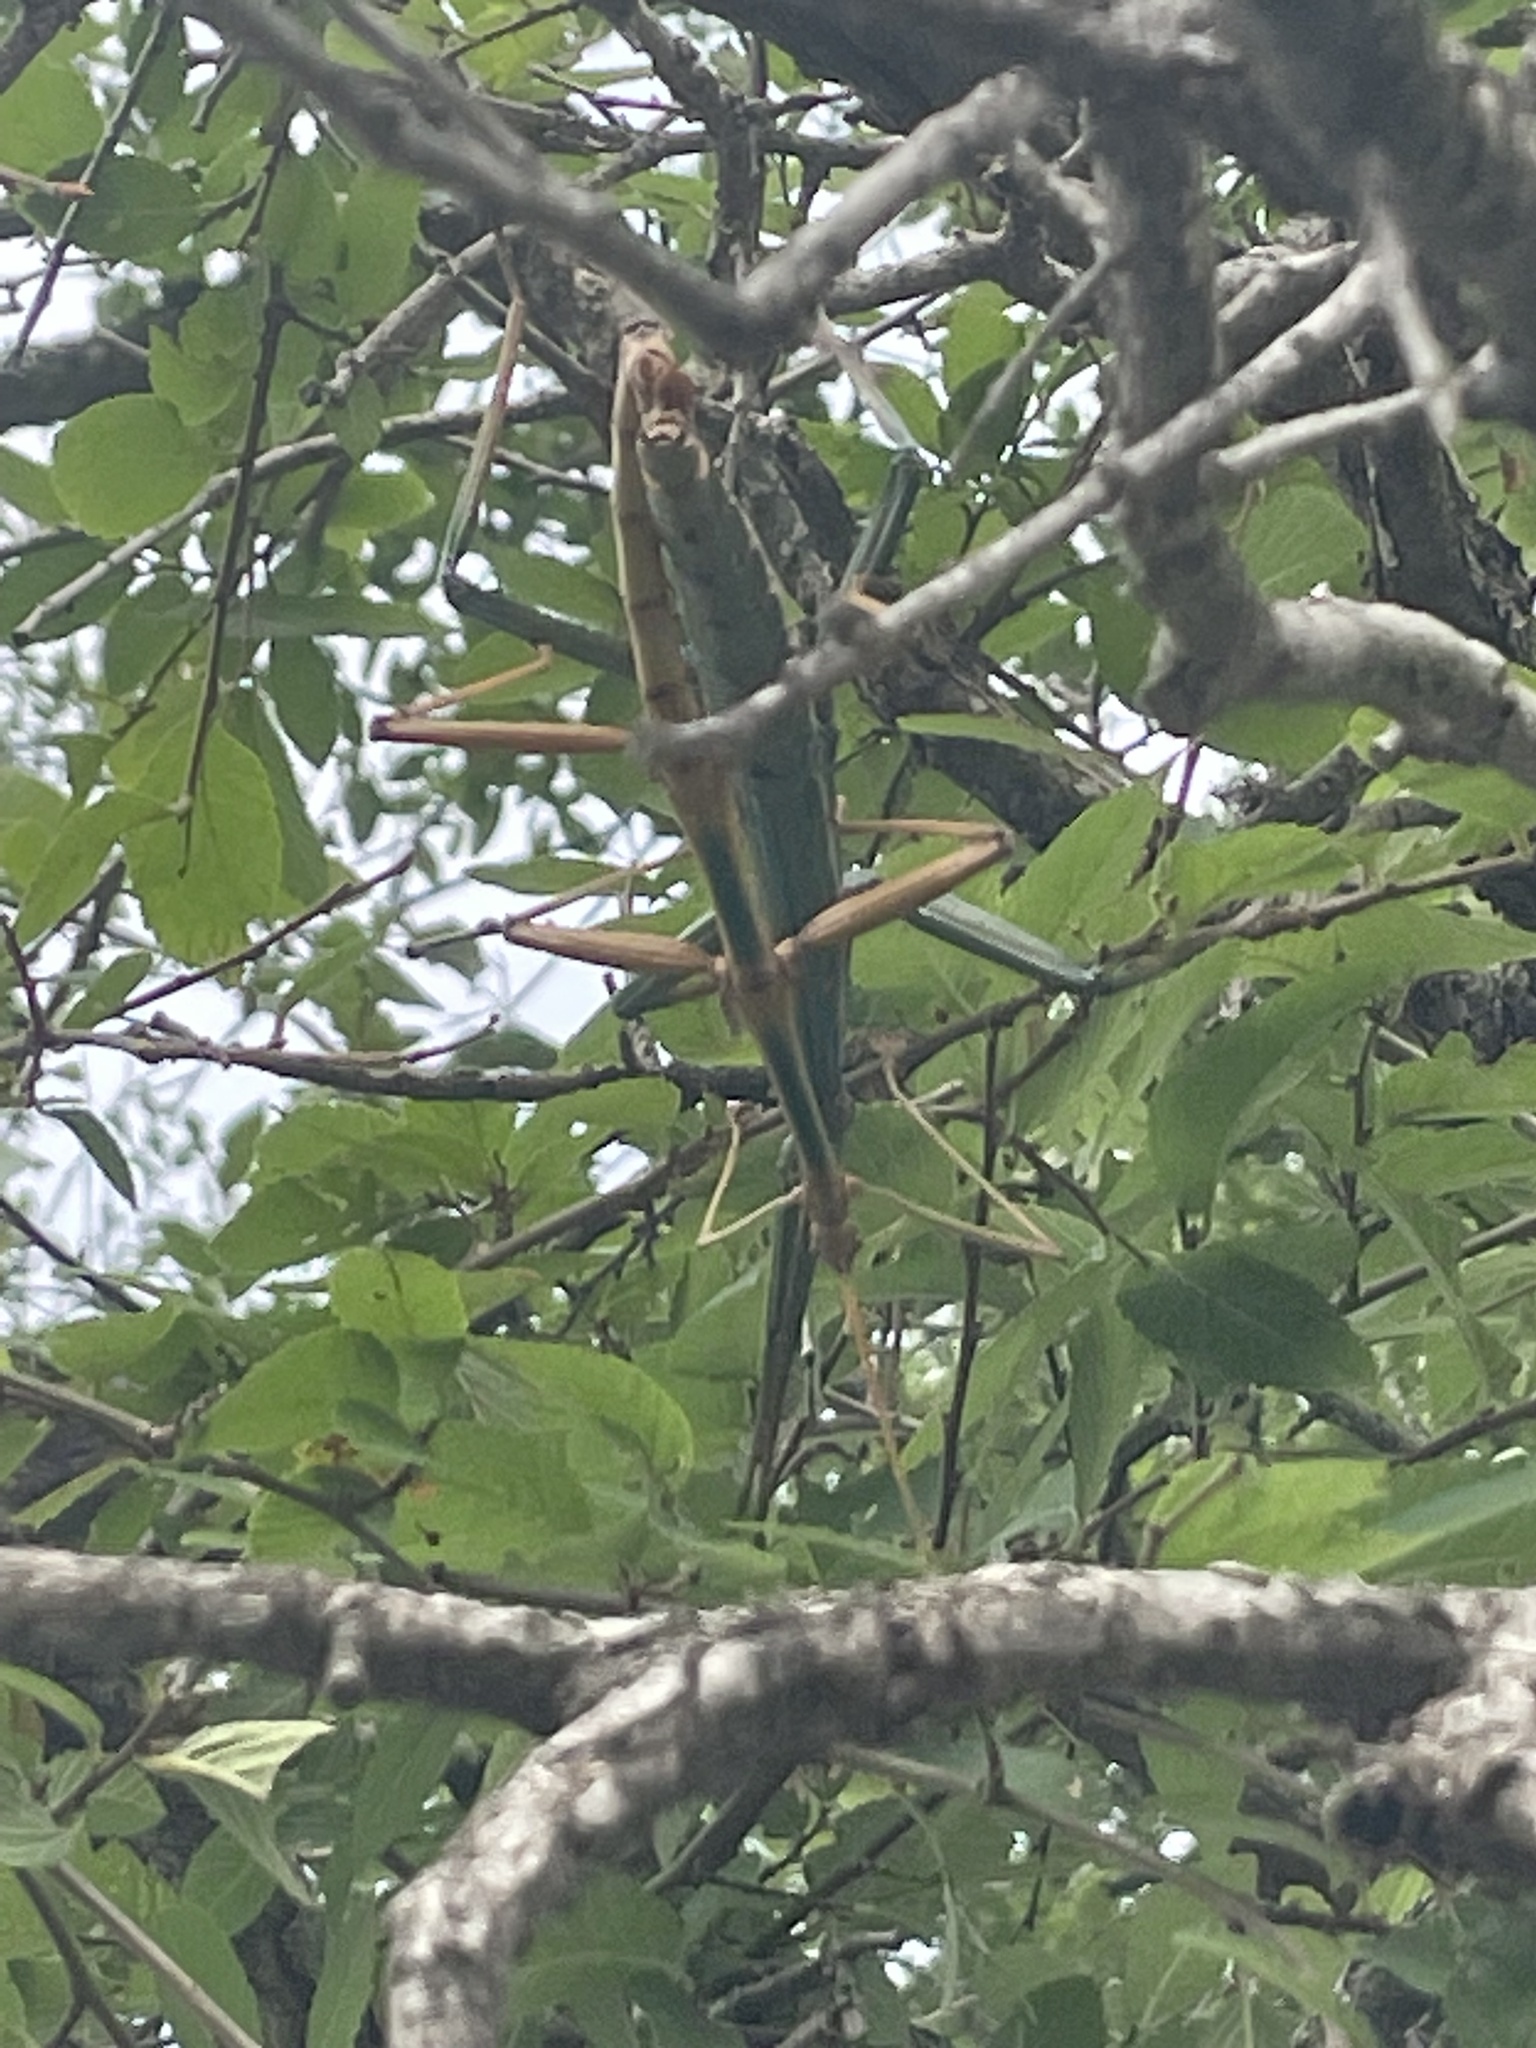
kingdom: Animalia
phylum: Arthropoda
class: Insecta
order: Phasmida
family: Diapheromeridae
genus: Megaphasma
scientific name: Megaphasma denticrus
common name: Giant walkingstick
